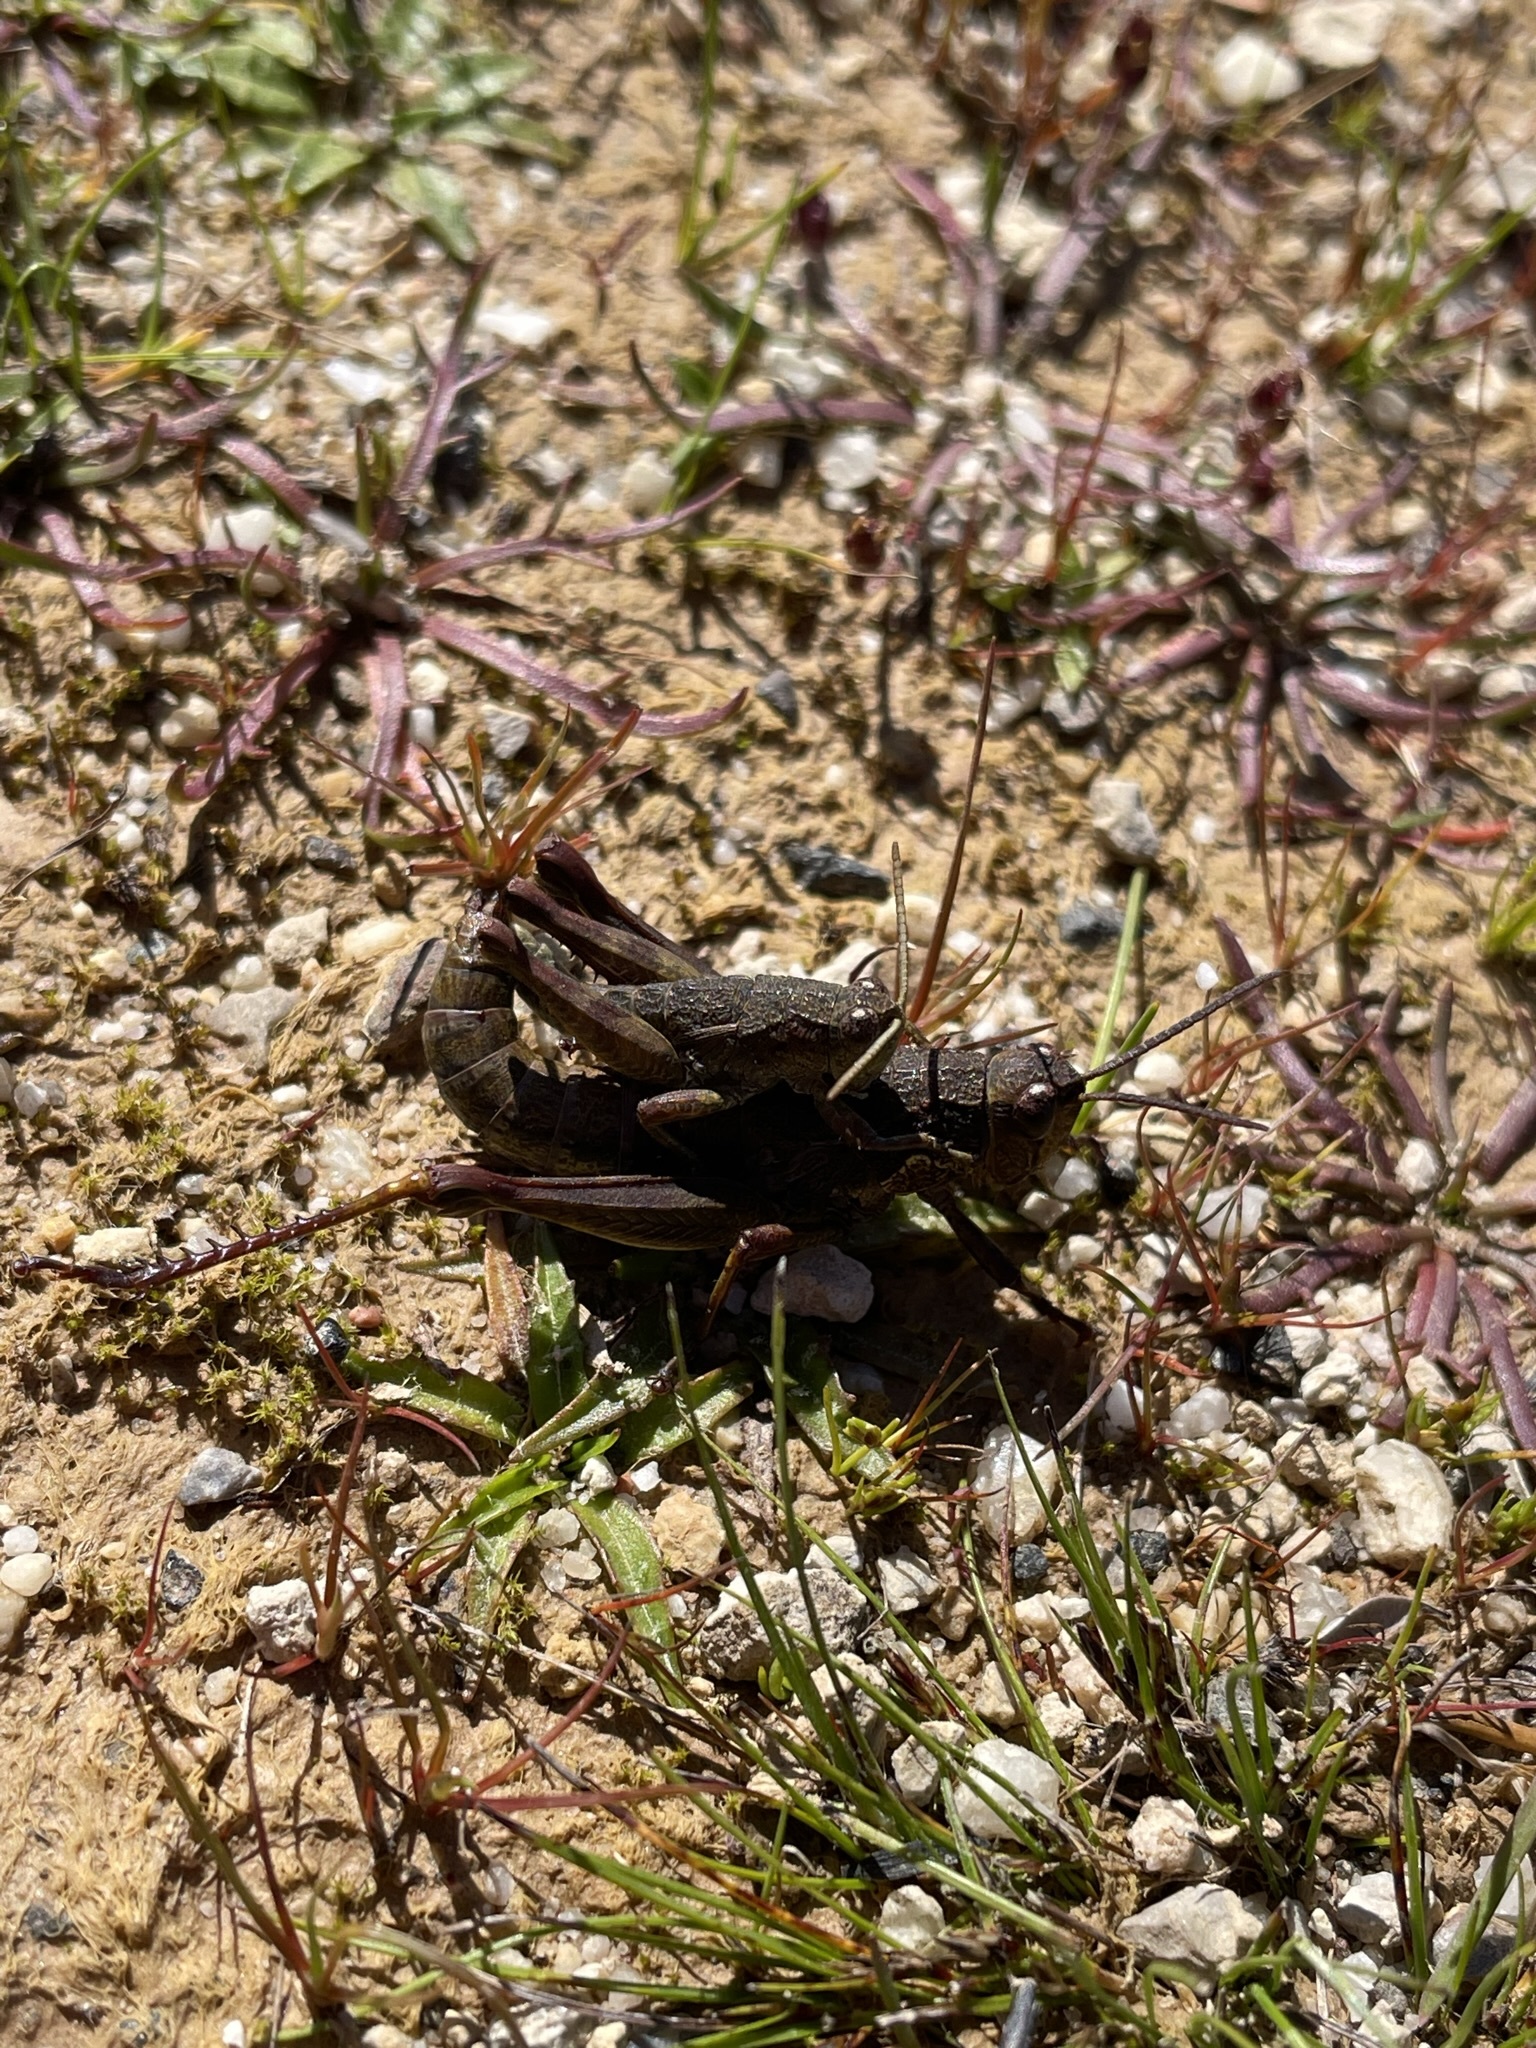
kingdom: Animalia
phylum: Arthropoda
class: Insecta
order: Orthoptera
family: Acrididae
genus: Tasmaniacris
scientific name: Tasmaniacris tasmaniensis
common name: Tasmanian grasshopper
